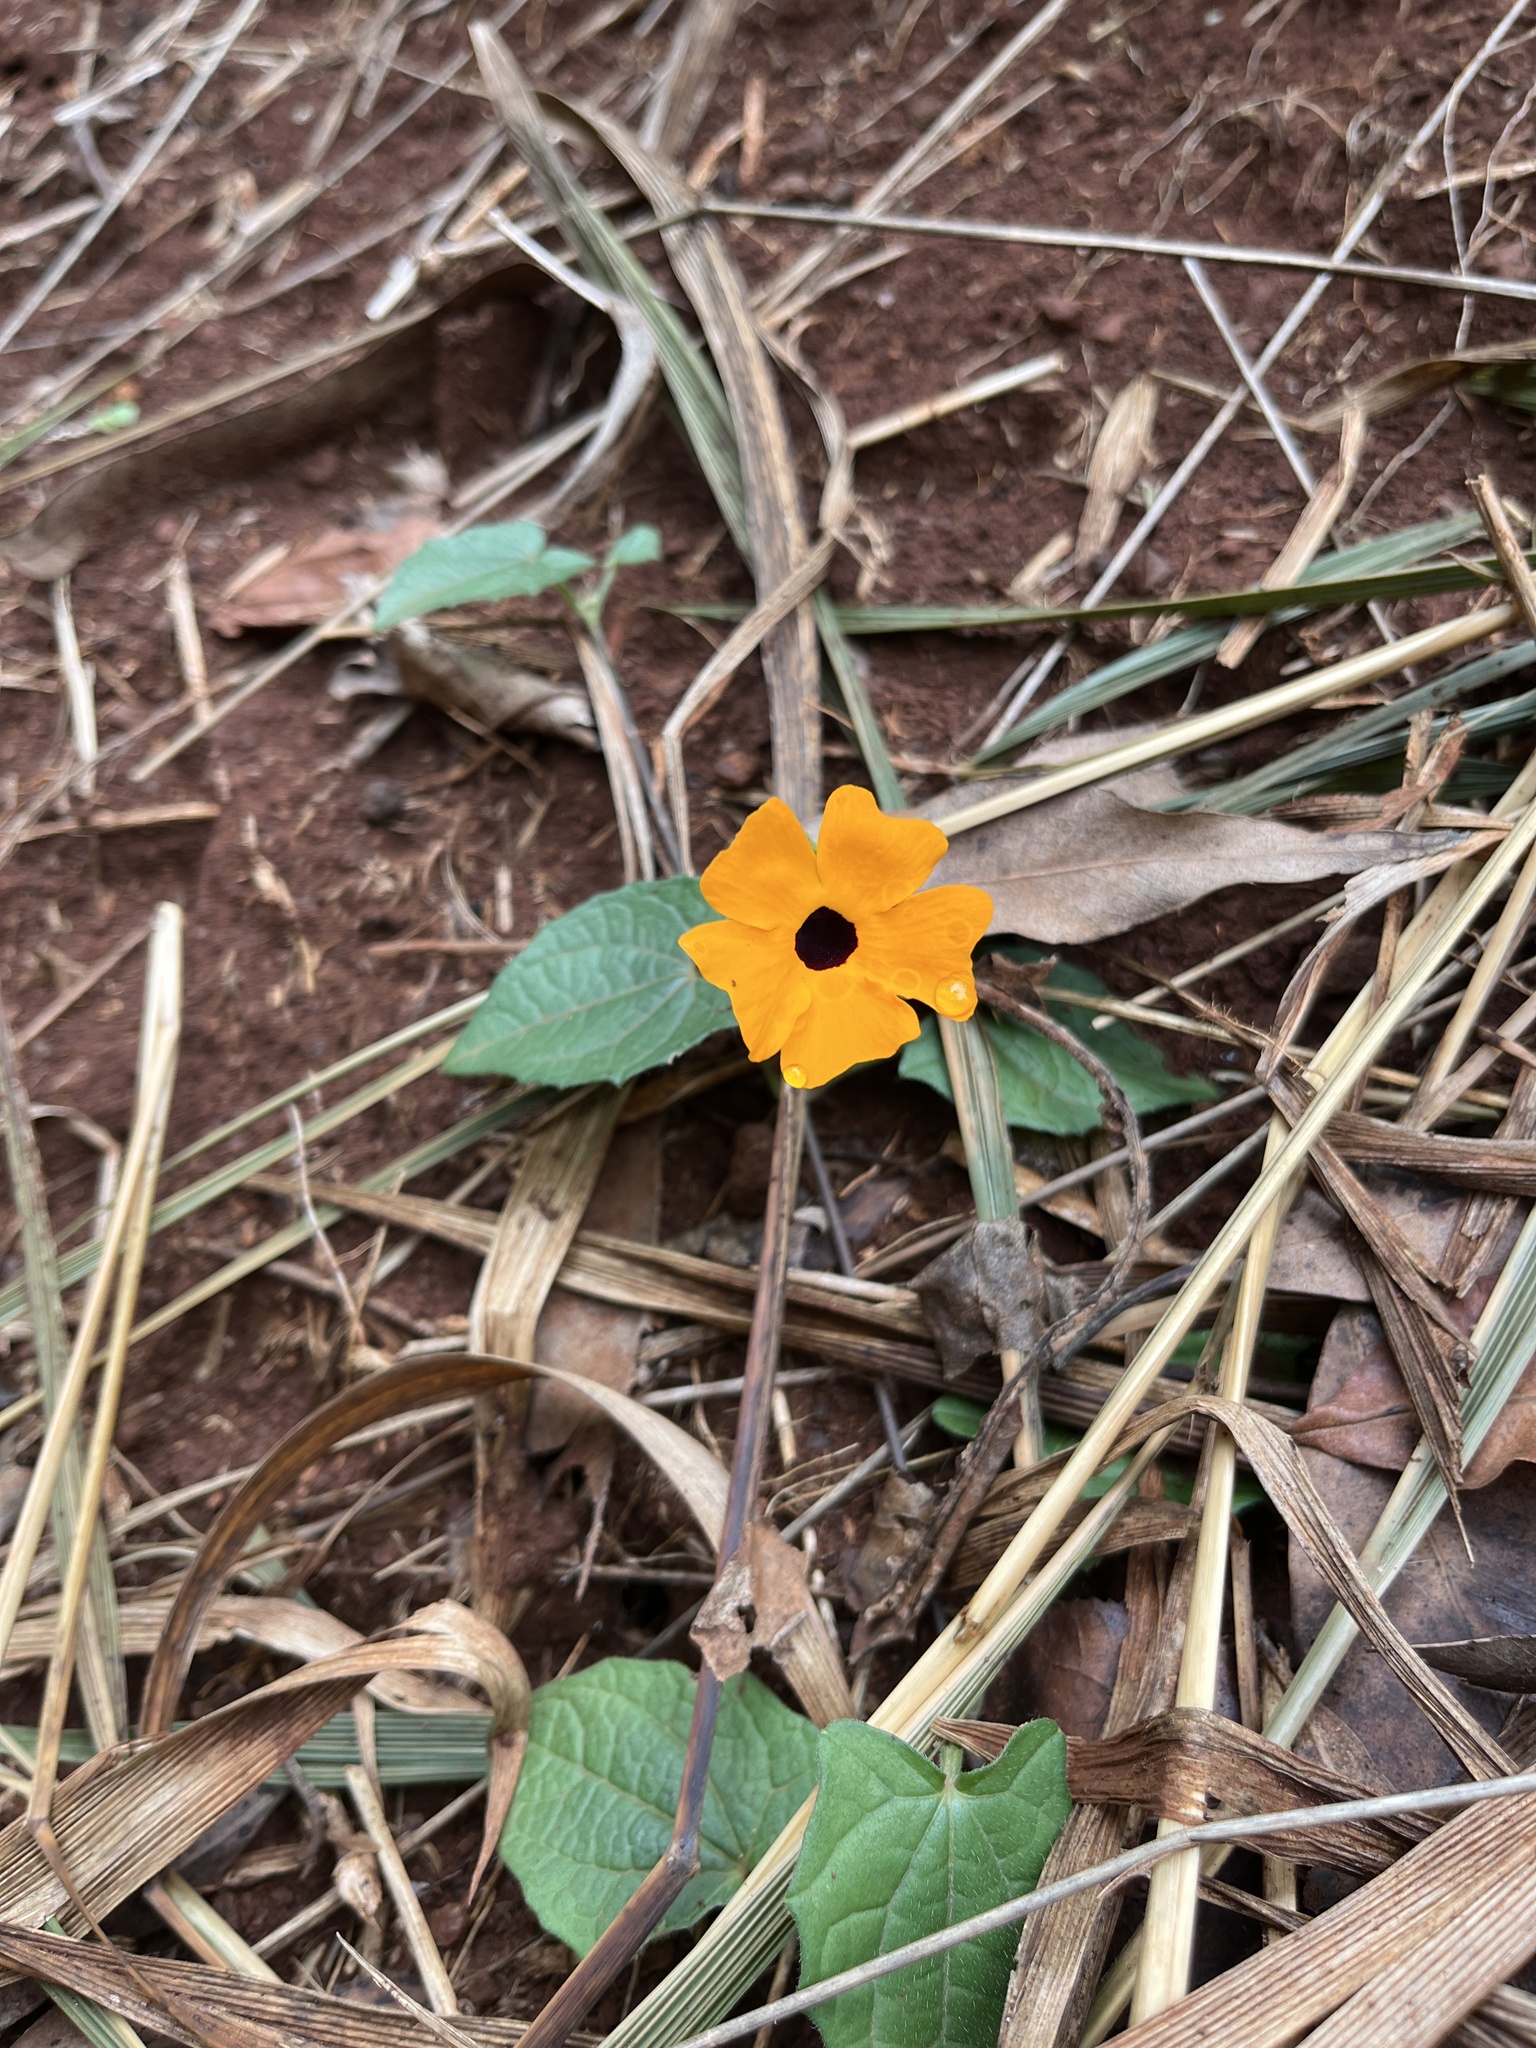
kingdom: Plantae
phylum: Tracheophyta
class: Magnoliopsida
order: Lamiales
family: Acanthaceae
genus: Thunbergia
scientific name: Thunbergia alata
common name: Blackeyed susan vine
